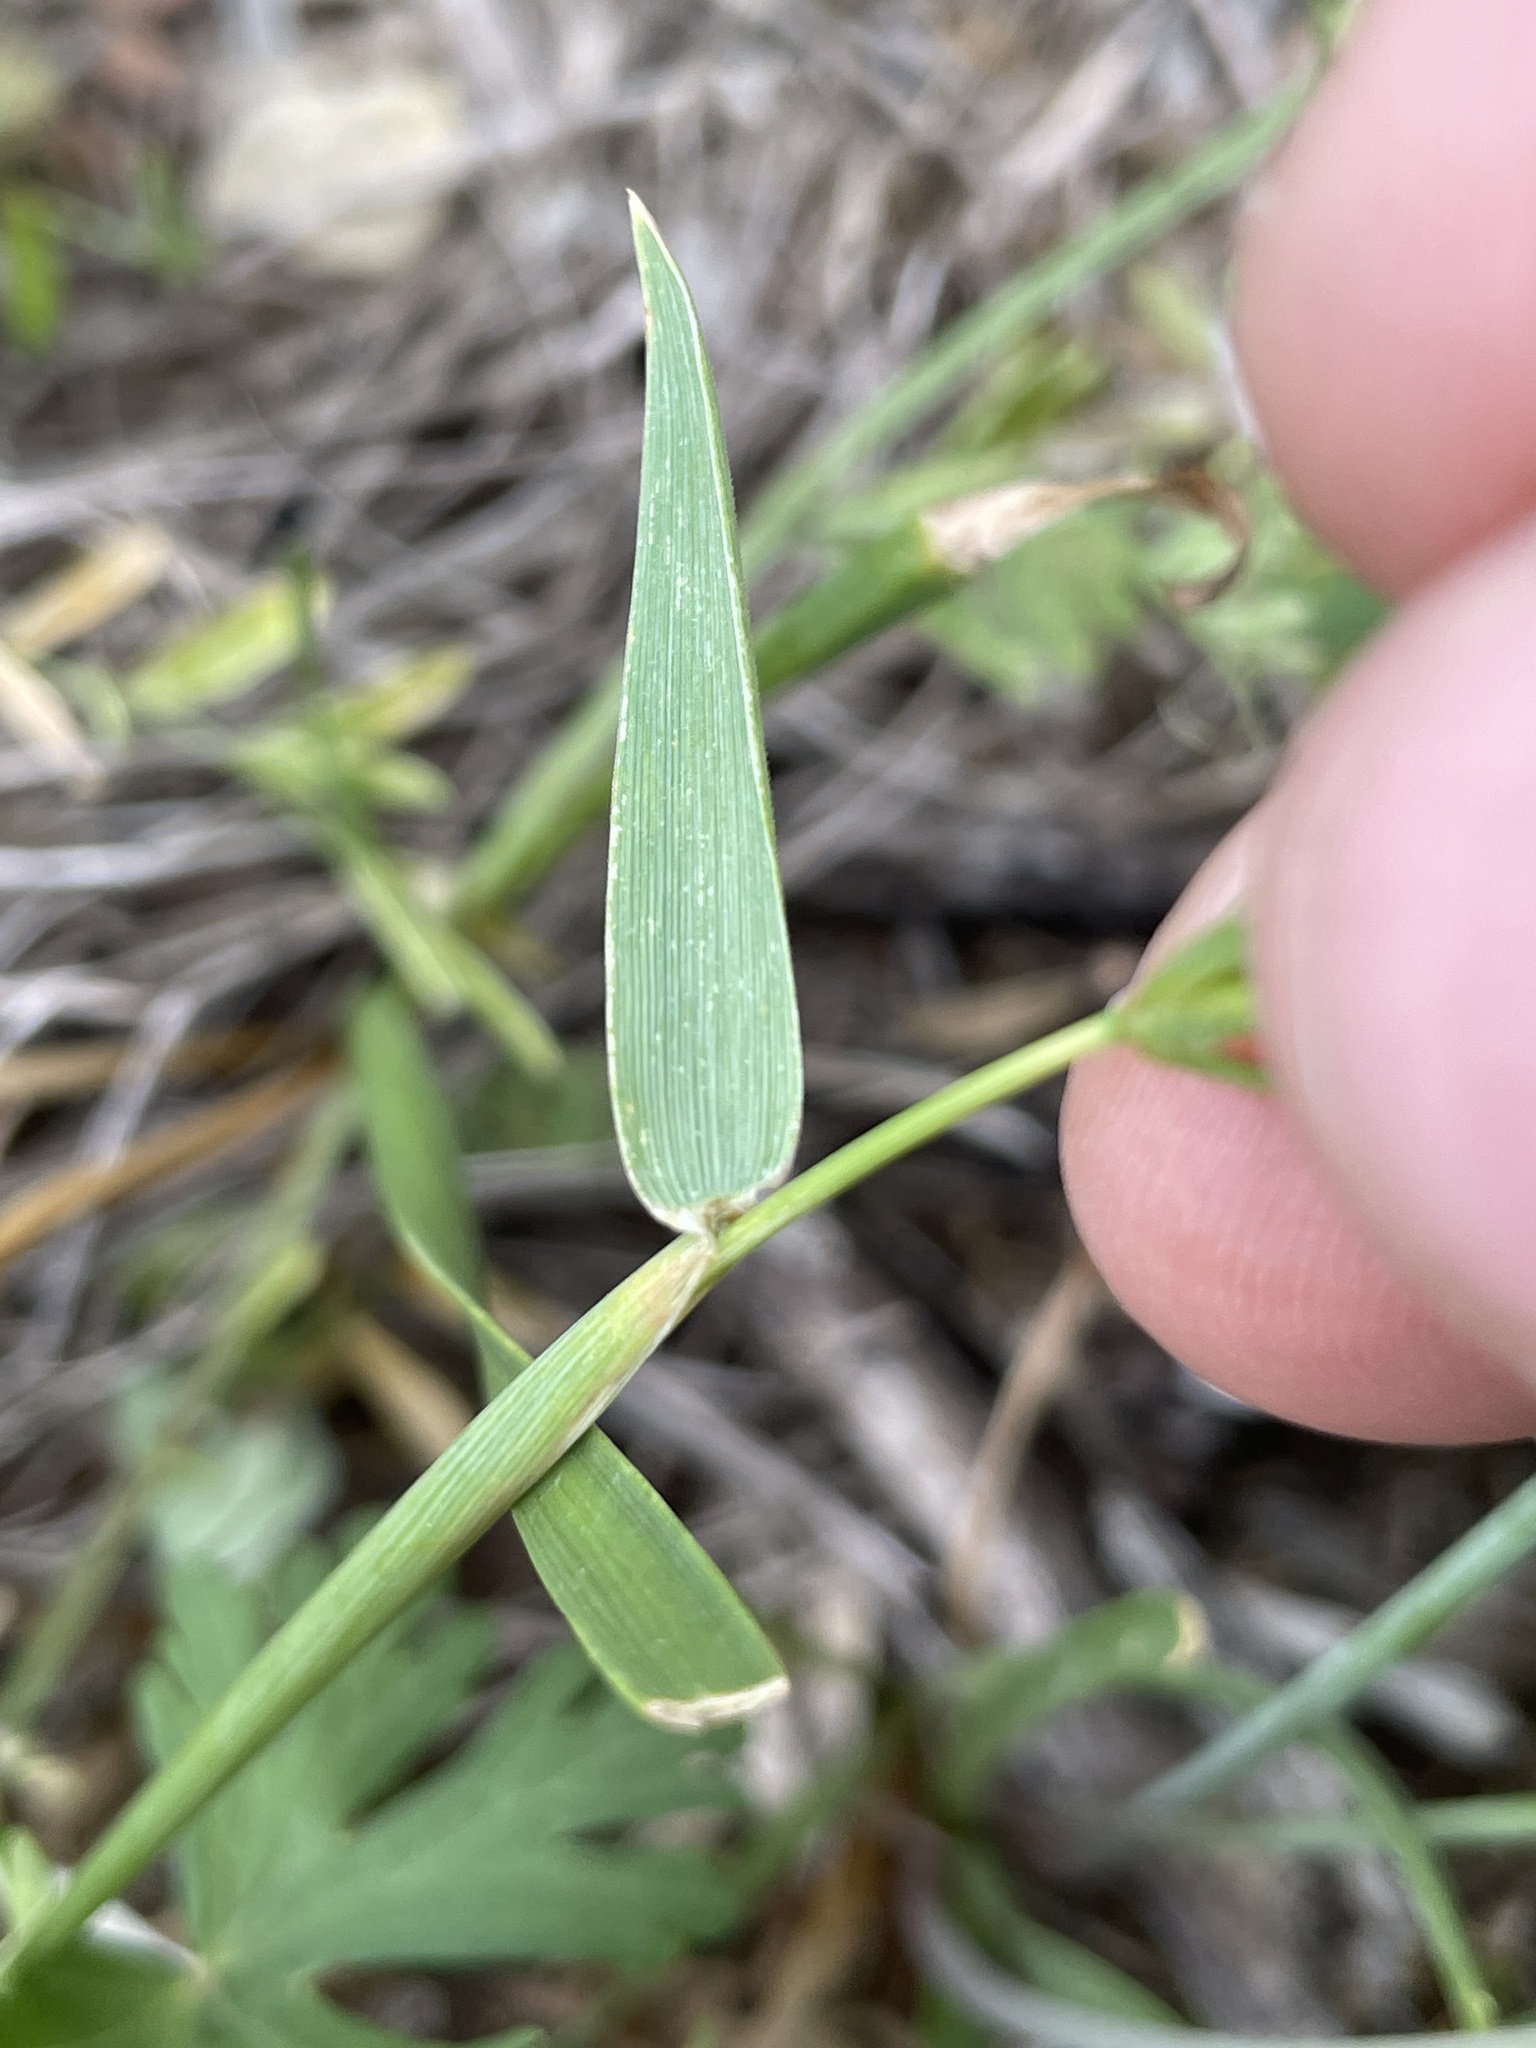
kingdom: Plantae
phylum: Tracheophyta
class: Liliopsida
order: Poales
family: Poaceae
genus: Hordeum
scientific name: Hordeum pusillum
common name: Little barley
